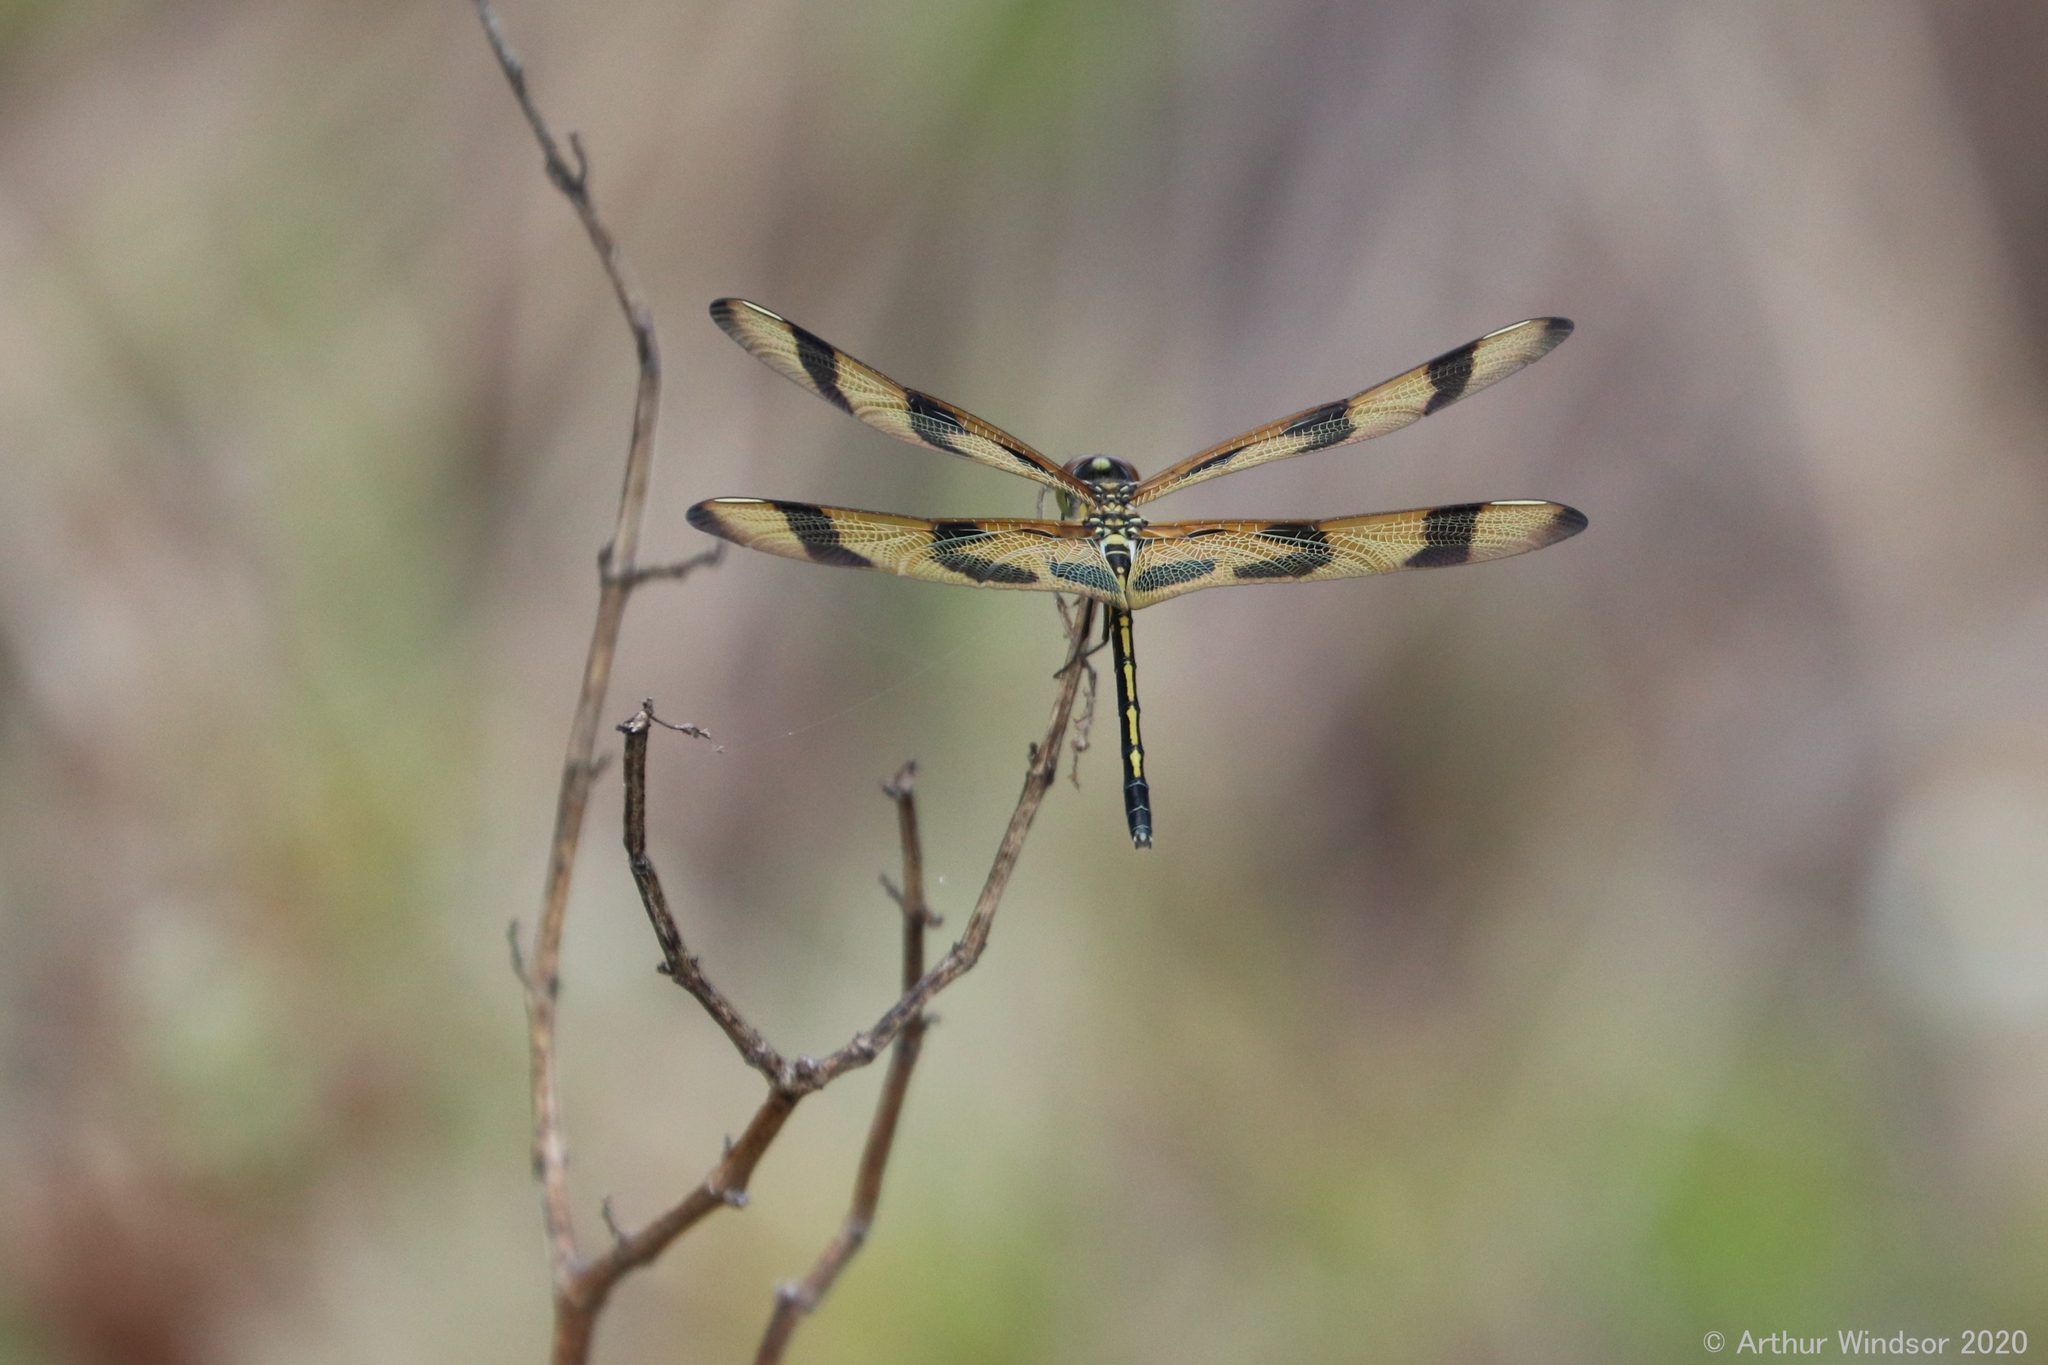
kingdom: Animalia
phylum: Arthropoda
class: Insecta
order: Odonata
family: Libellulidae
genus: Celithemis
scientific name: Celithemis eponina
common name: Halloween pennant
